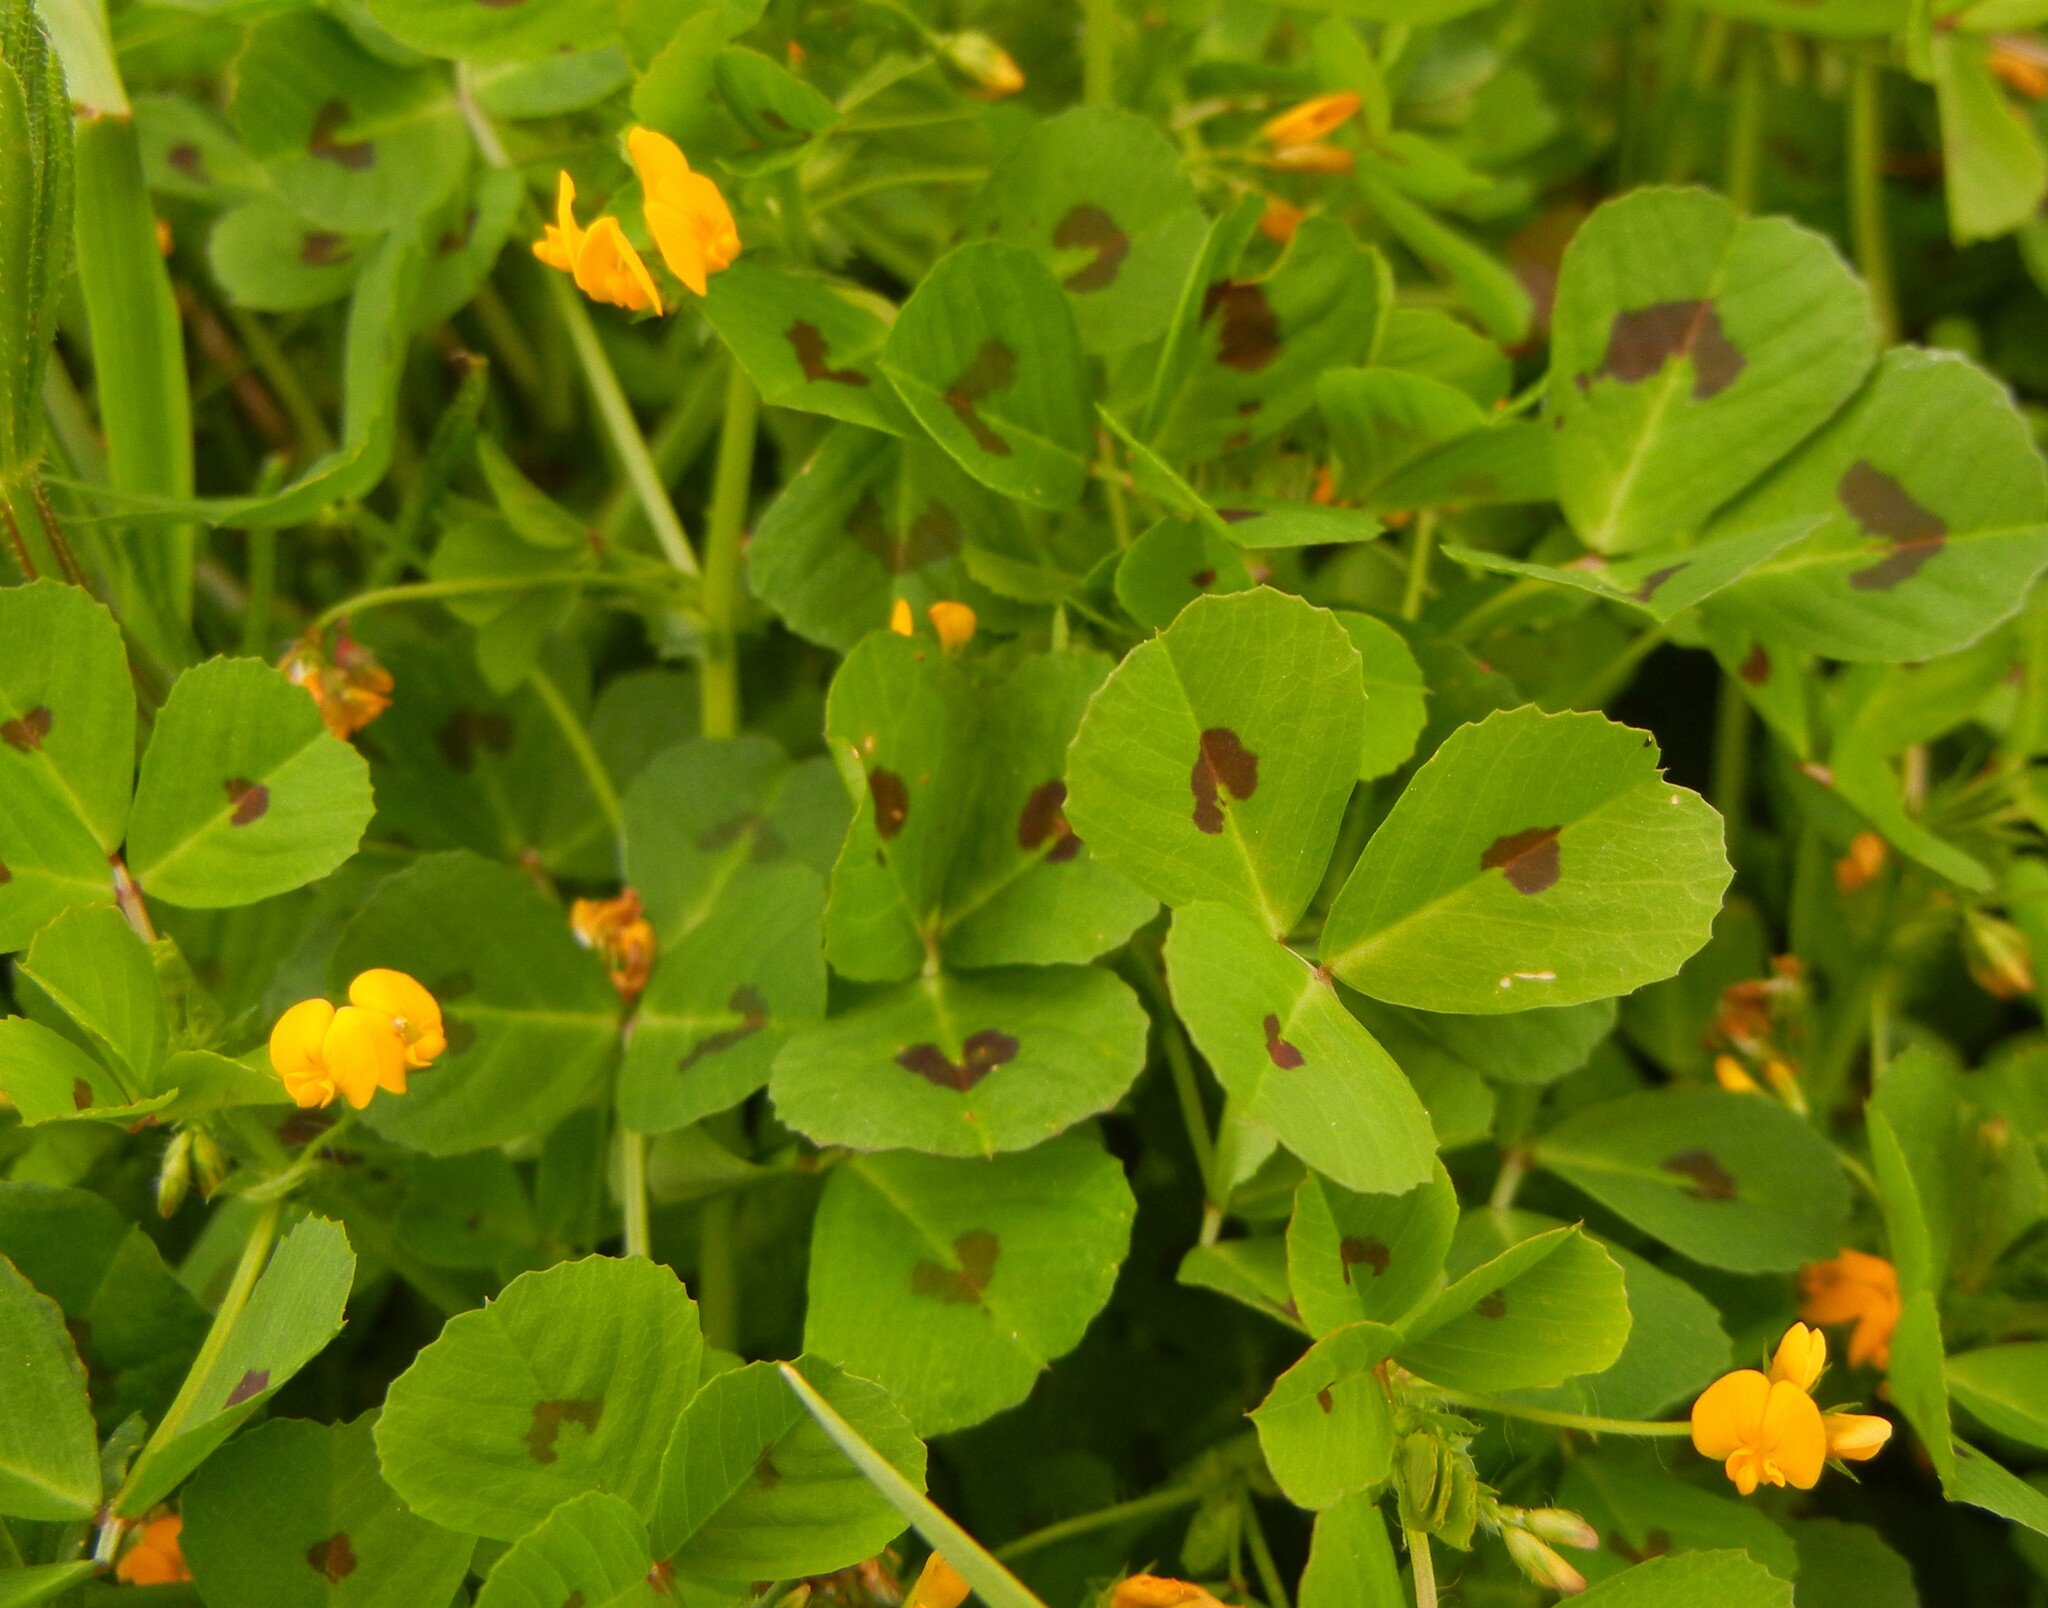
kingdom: Plantae
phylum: Tracheophyta
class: Magnoliopsida
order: Fabales
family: Fabaceae
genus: Medicago
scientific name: Medicago arabica
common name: Spotted medick
